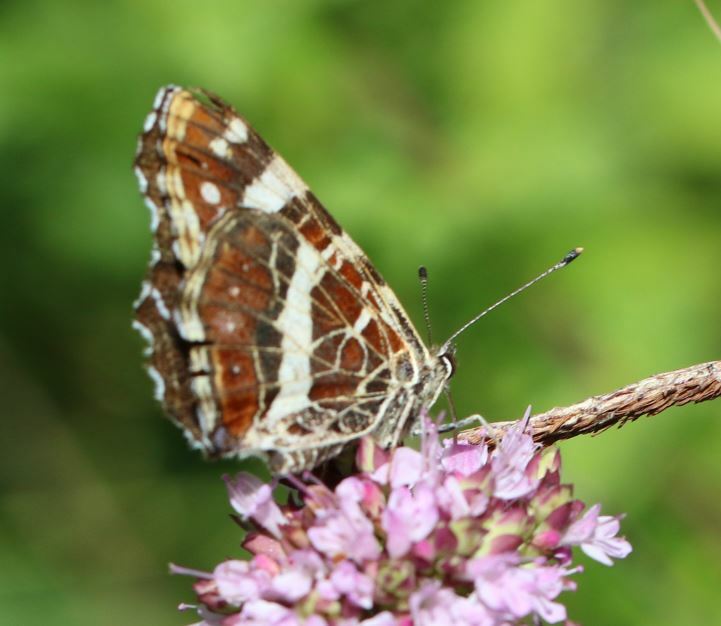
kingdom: Animalia
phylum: Arthropoda
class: Insecta
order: Lepidoptera
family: Nymphalidae
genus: Araschnia
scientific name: Araschnia levana
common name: Map butterfly
